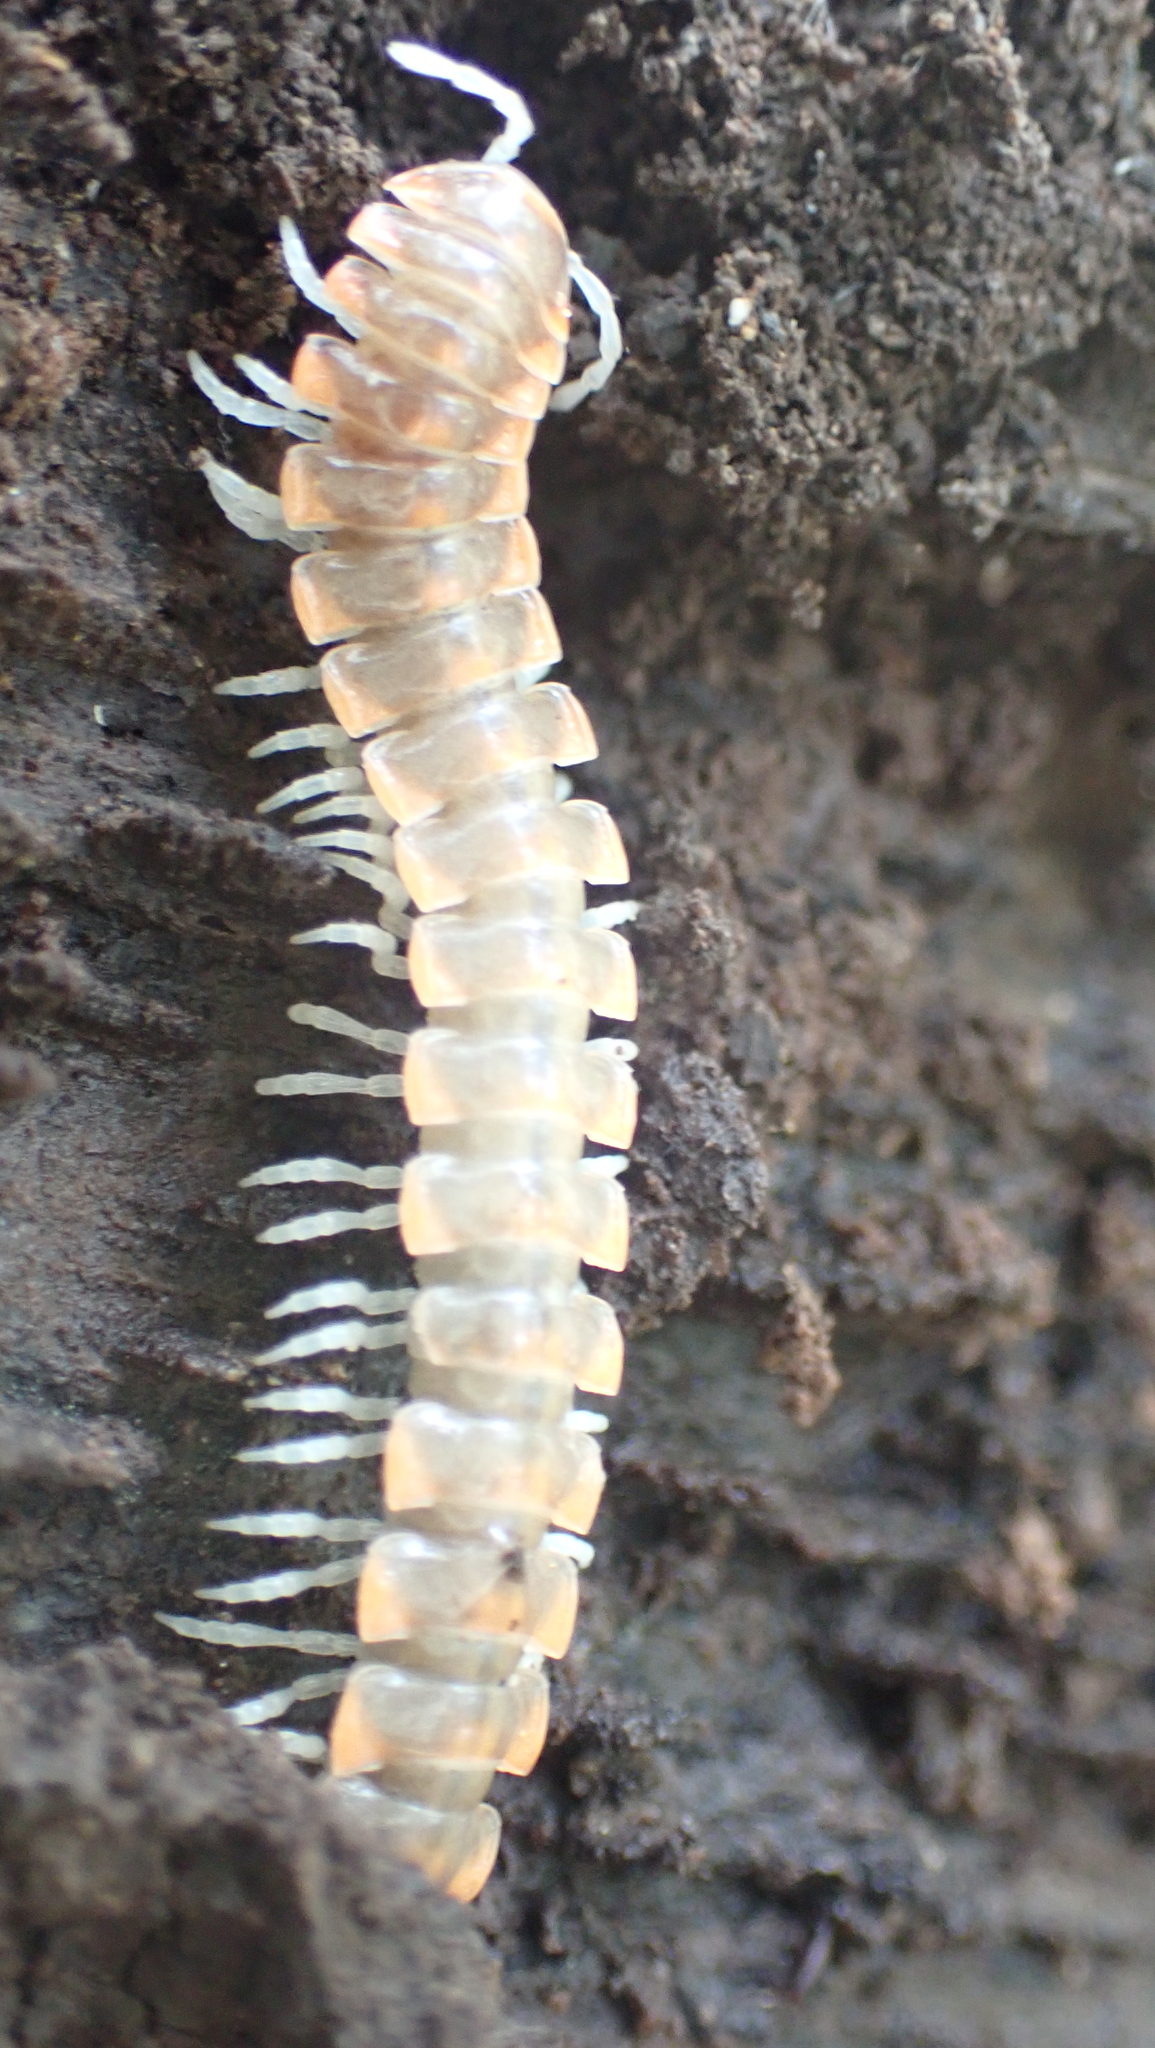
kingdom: Animalia
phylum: Arthropoda
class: Diplopoda
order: Polydesmida
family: Xystodesmidae
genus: Euryurus
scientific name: Euryurus leachii
